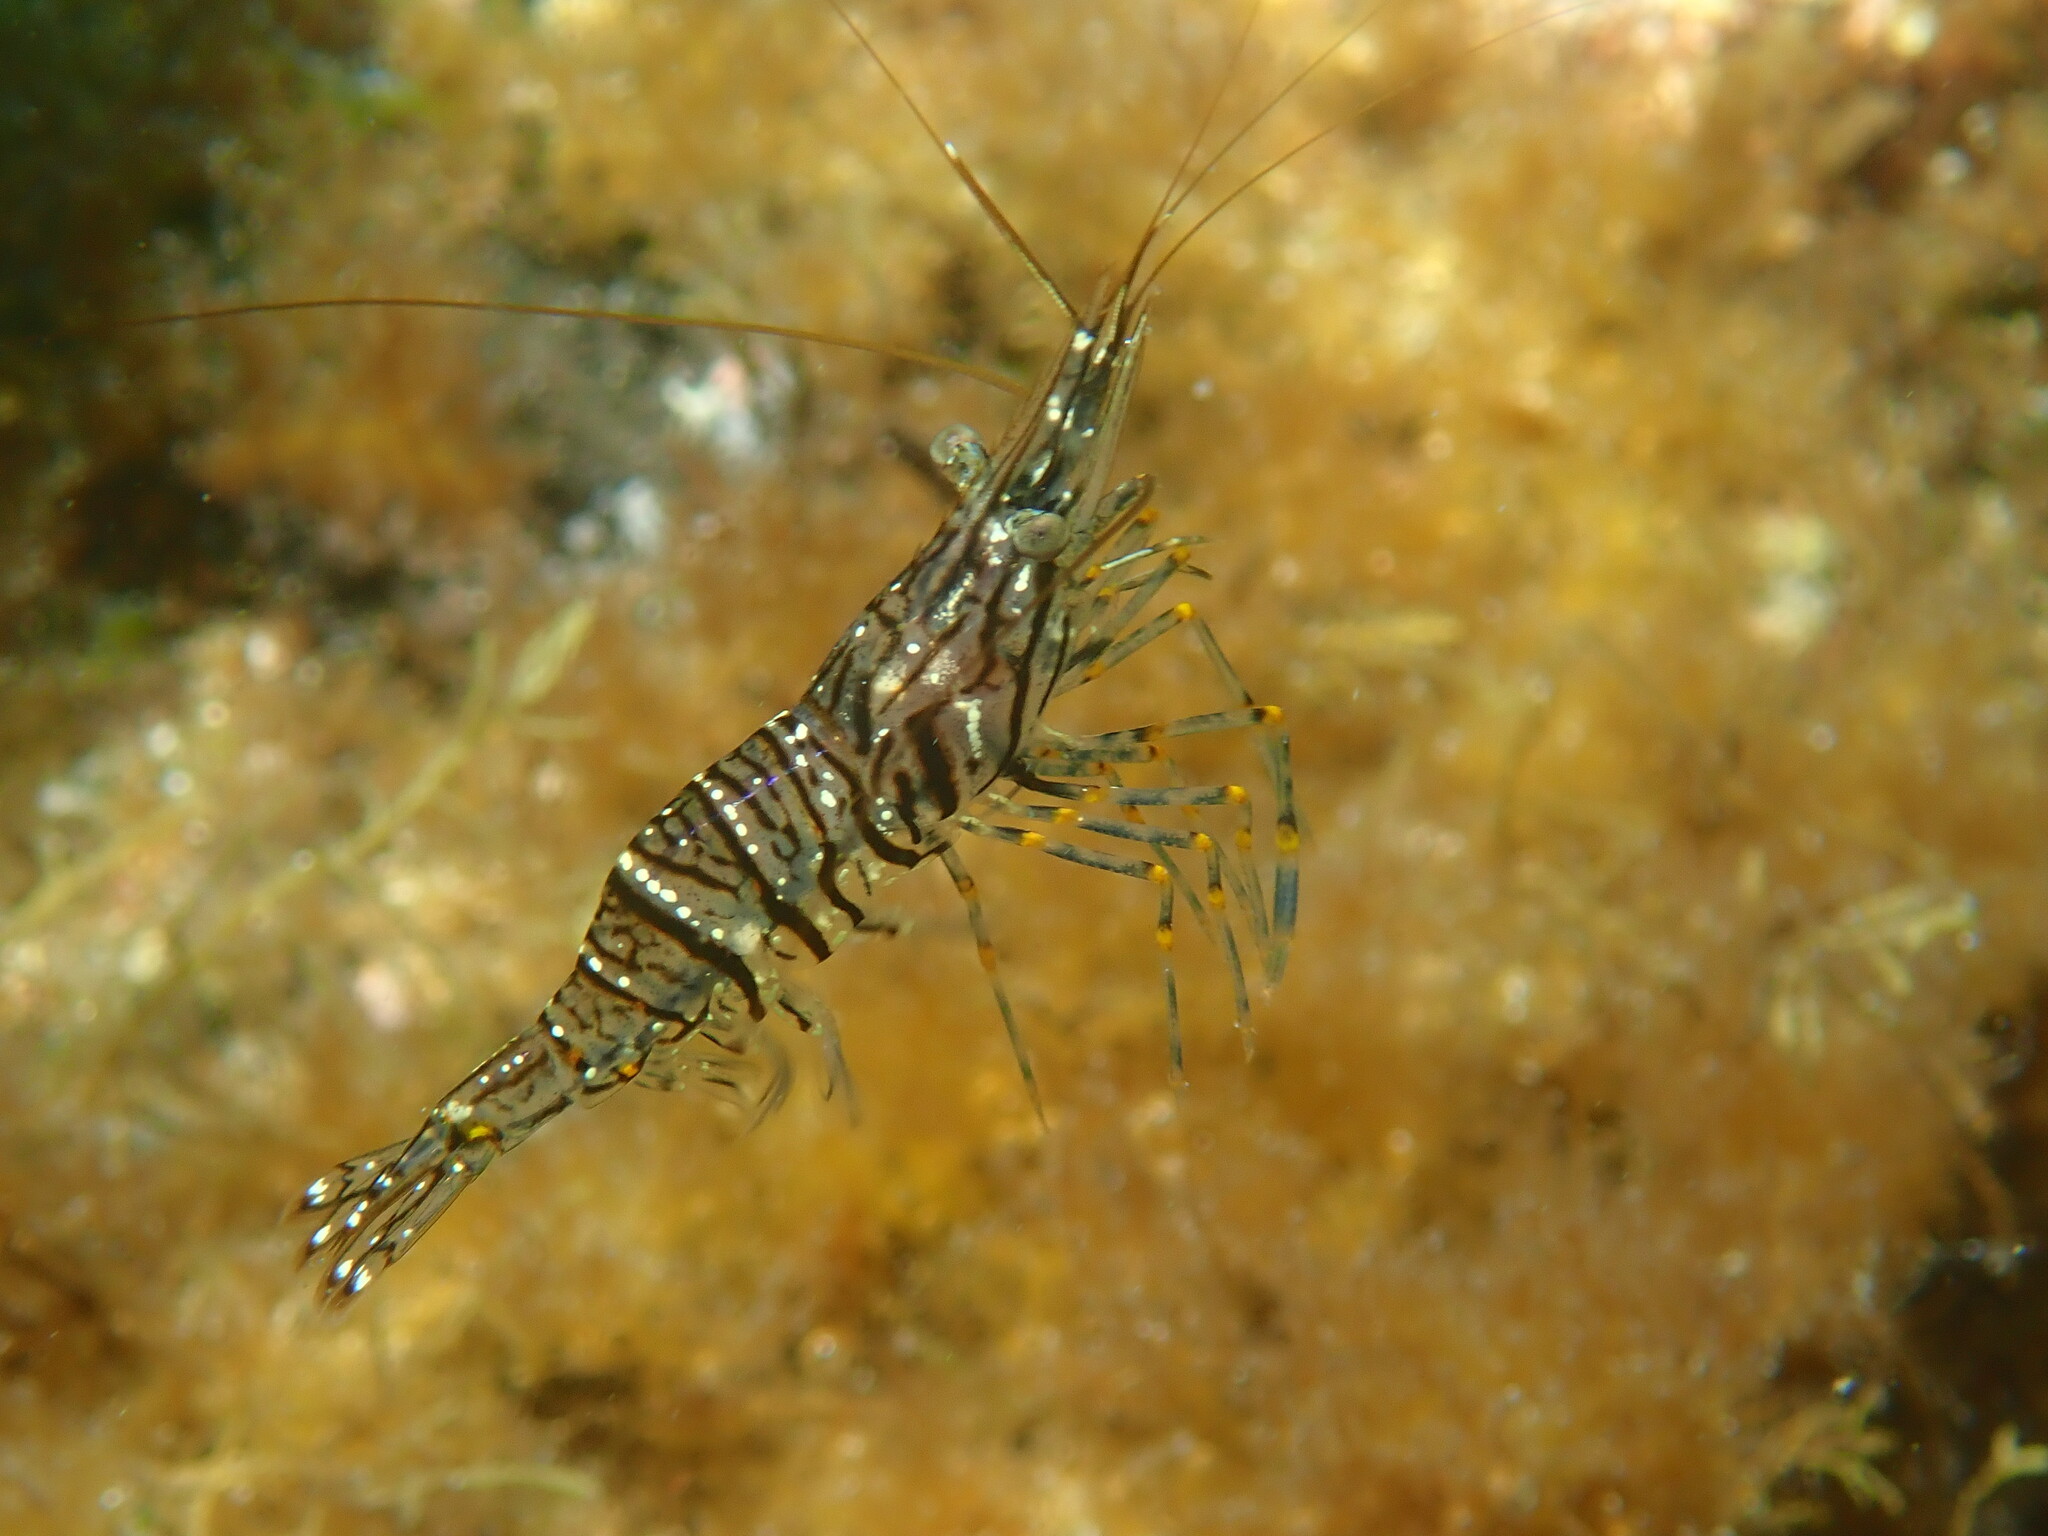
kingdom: Animalia
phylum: Arthropoda
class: Malacostraca
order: Decapoda
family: Palaemonidae
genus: Palaemon
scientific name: Palaemon elegans
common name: Grass prawm
